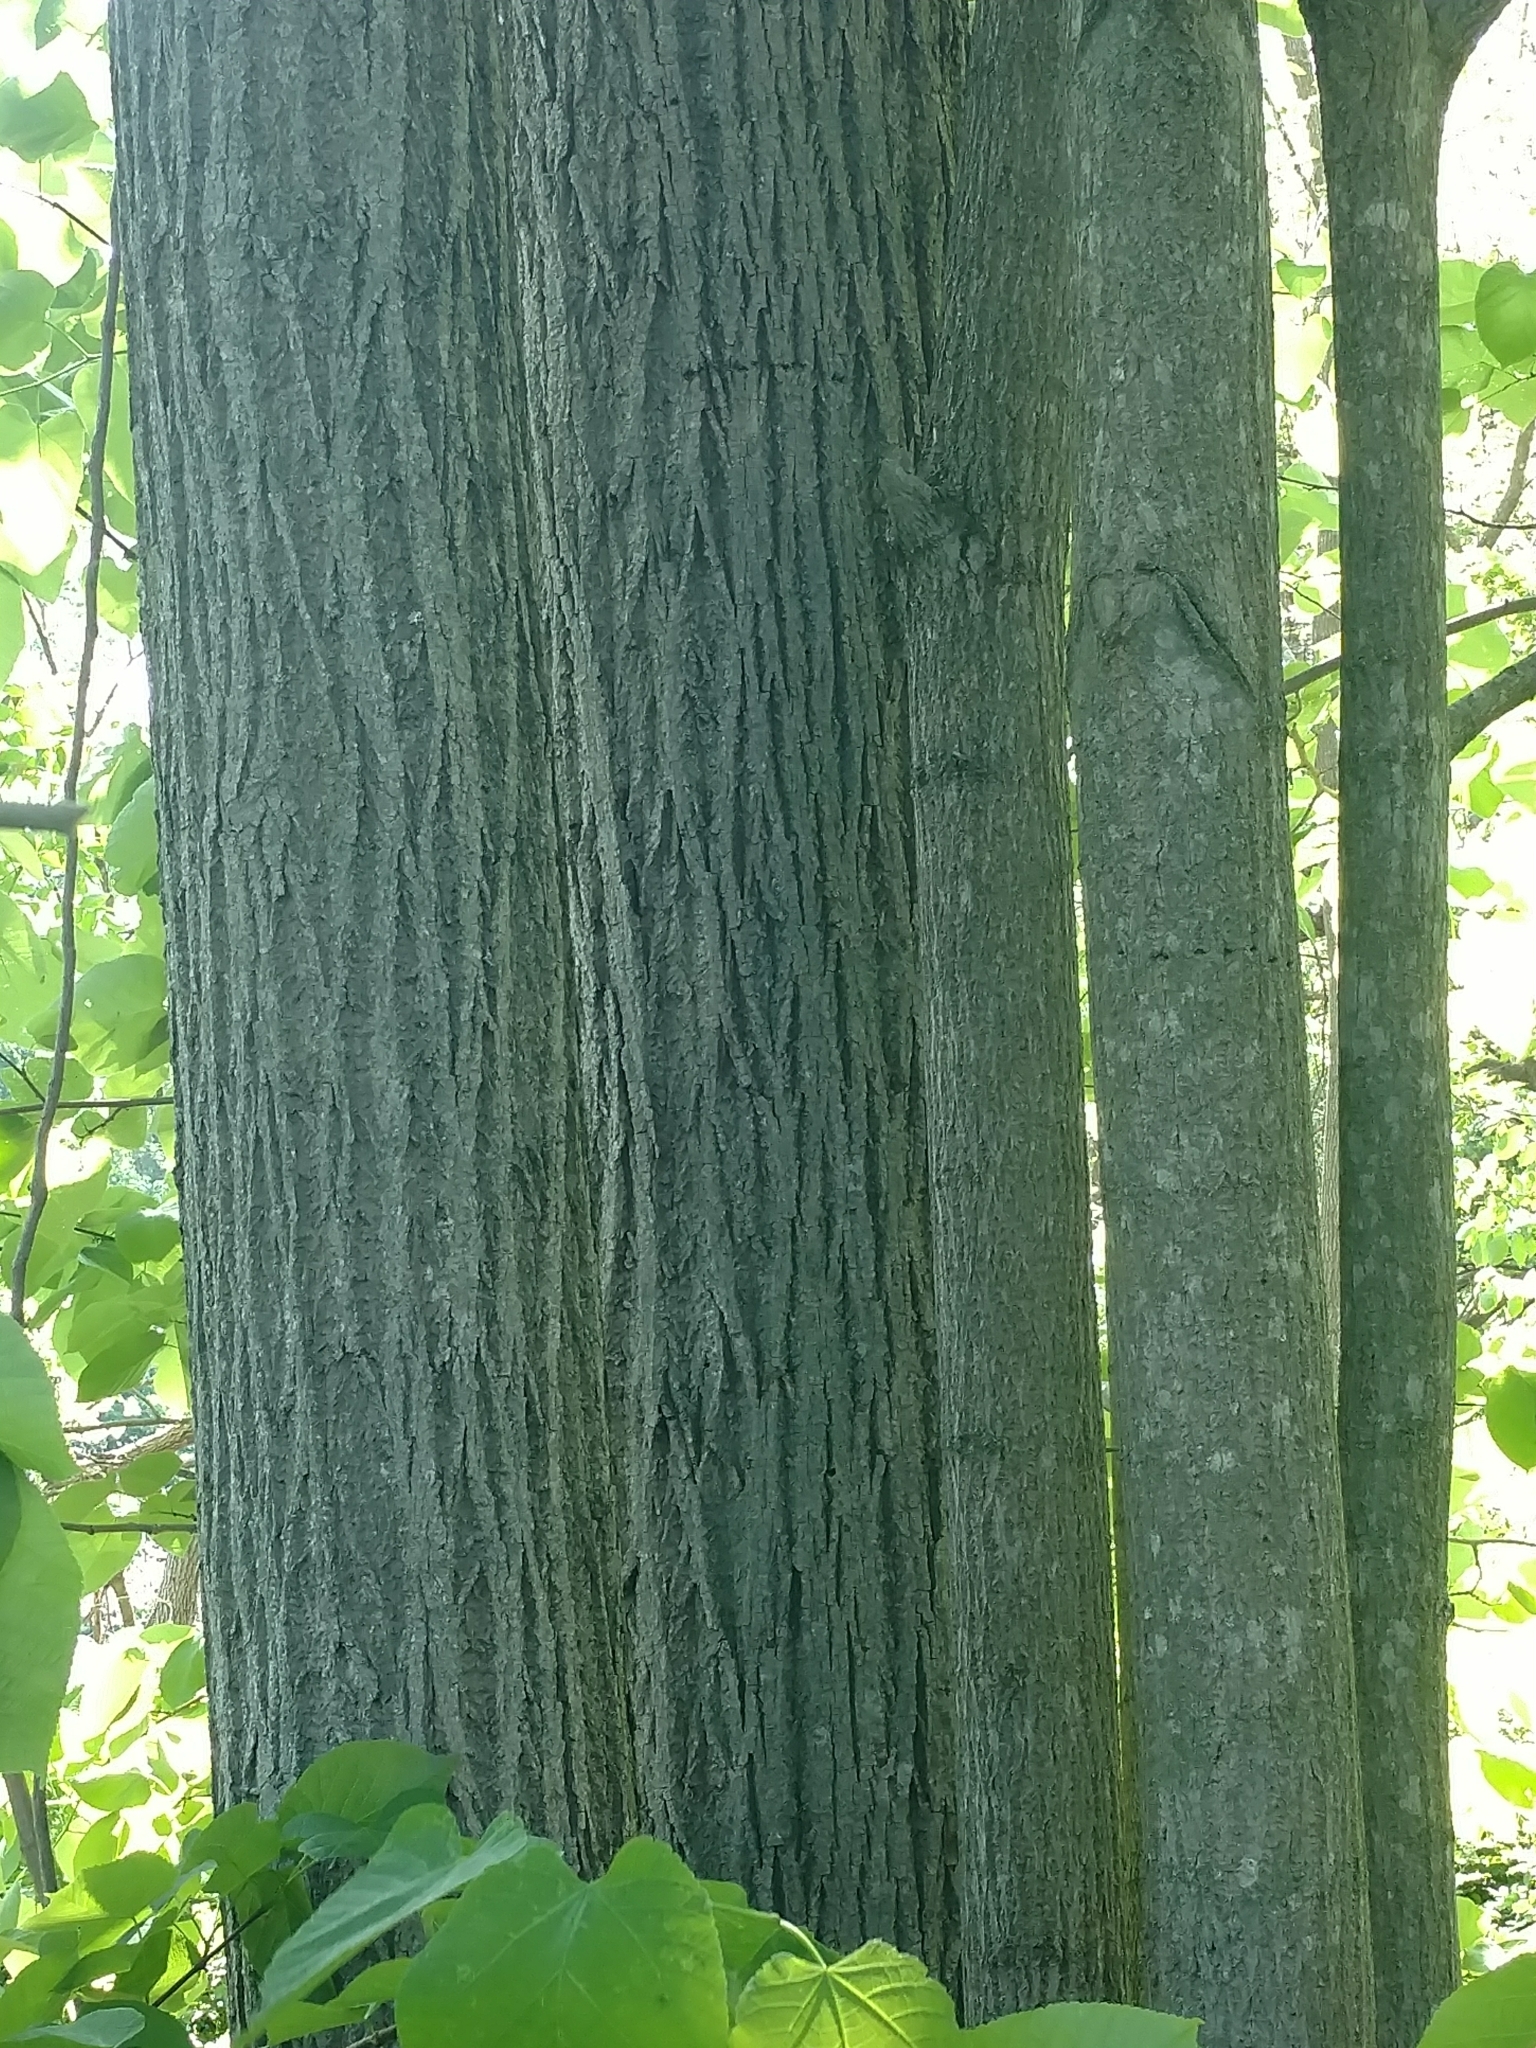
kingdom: Plantae
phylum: Tracheophyta
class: Magnoliopsida
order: Malvales
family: Malvaceae
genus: Tilia
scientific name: Tilia americana
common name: Basswood
